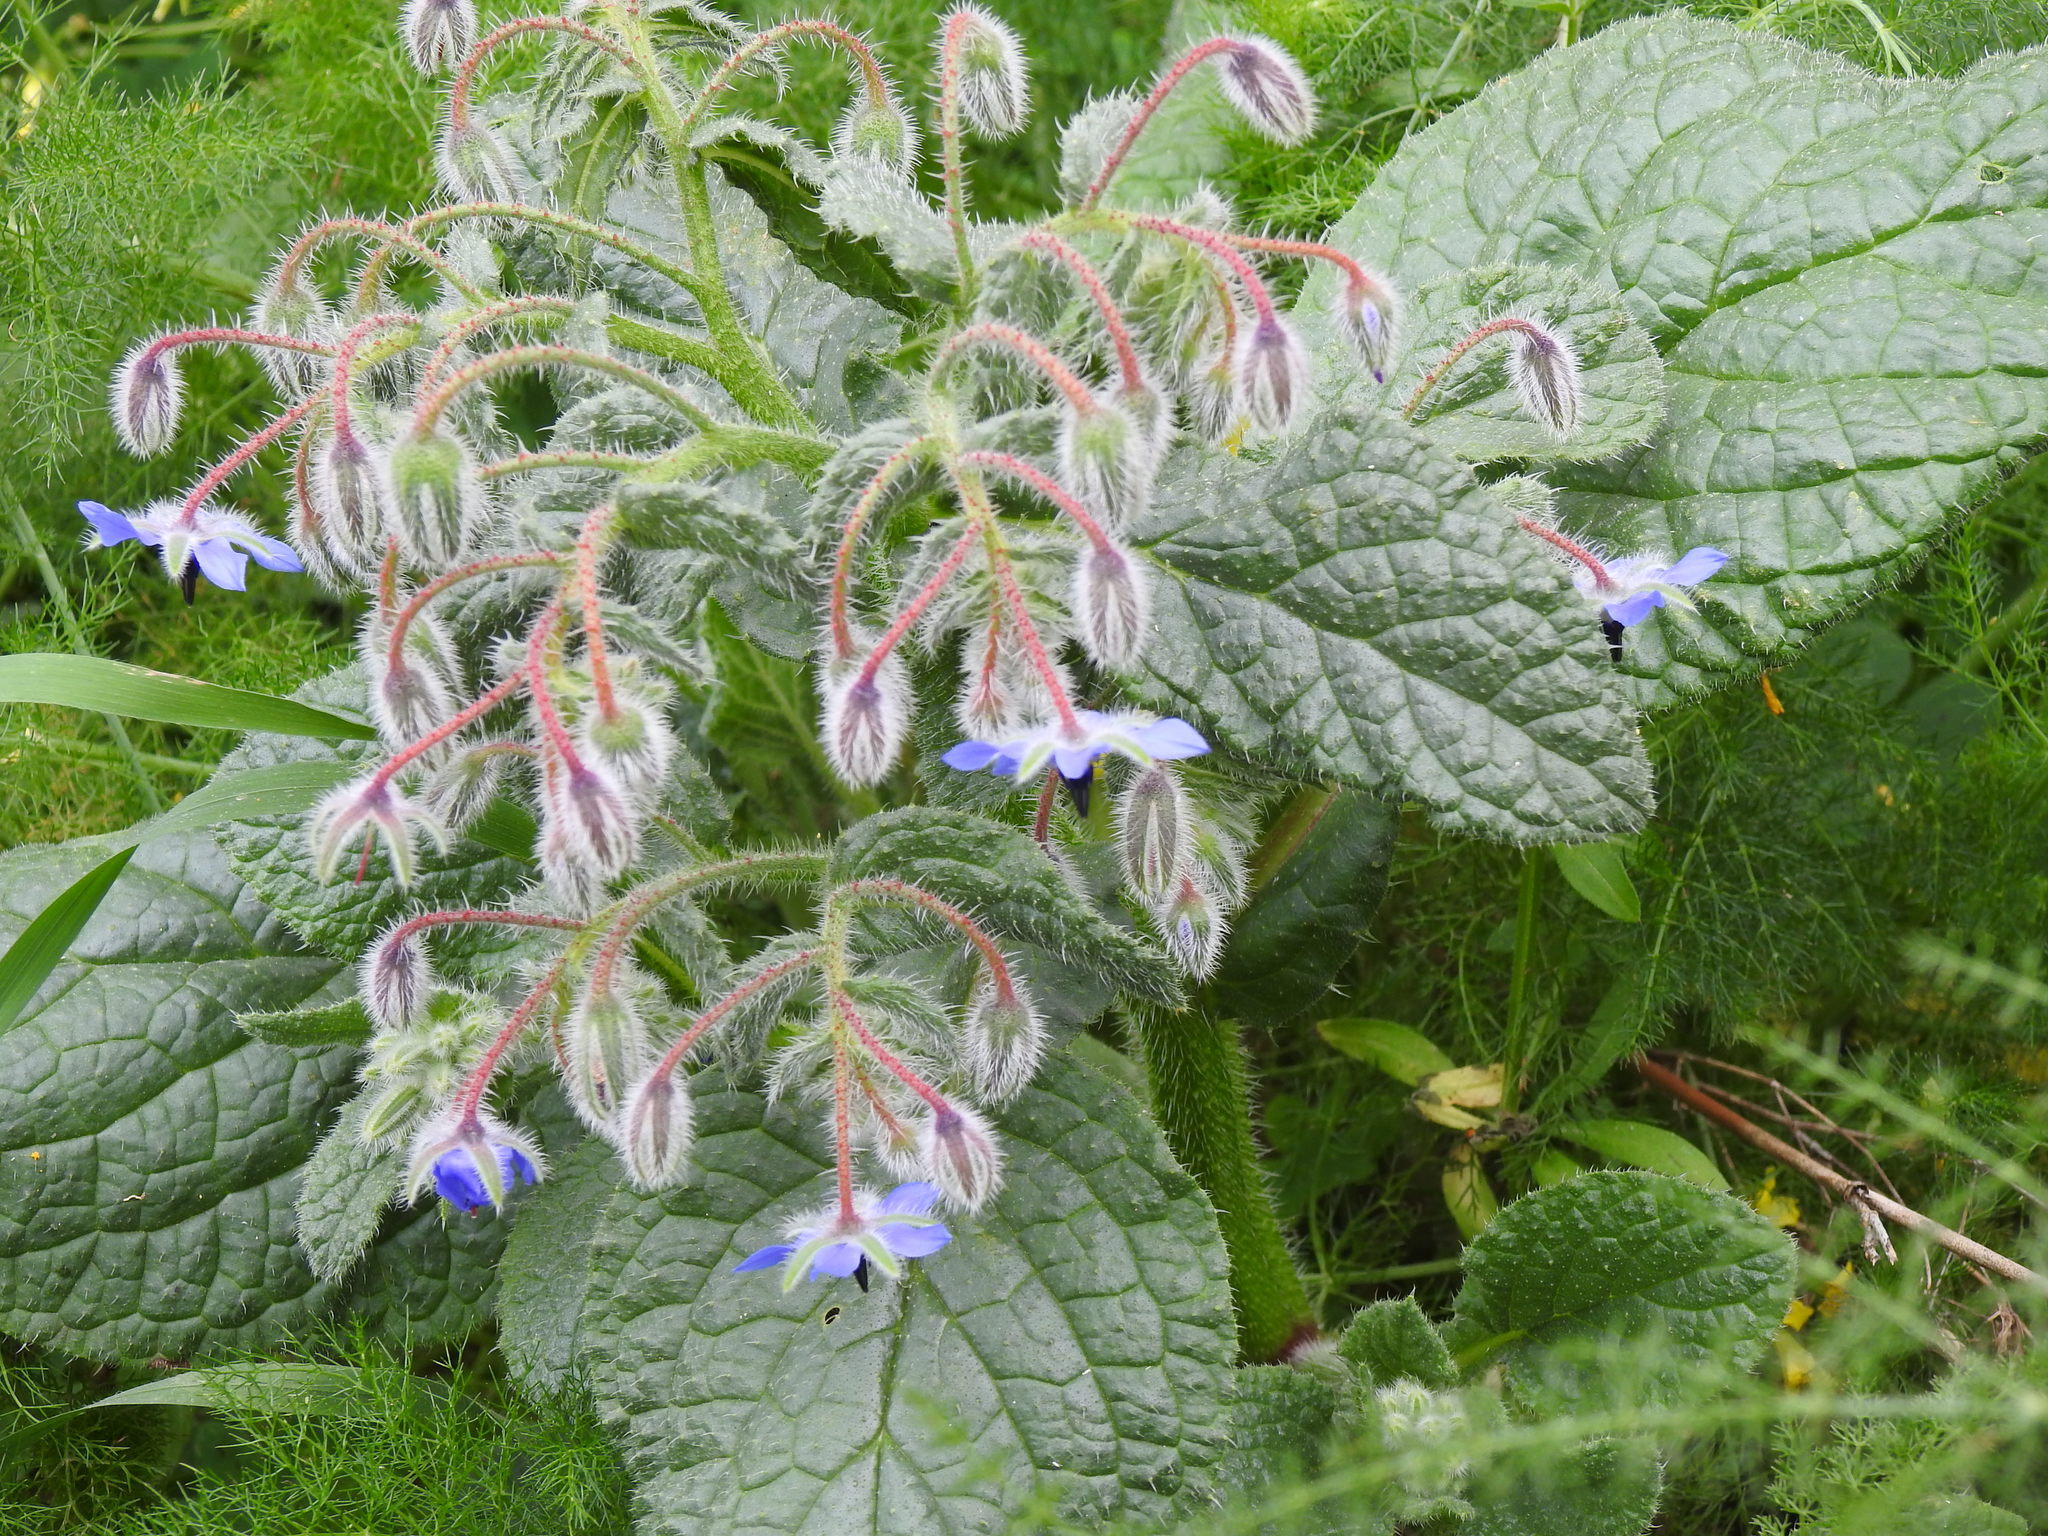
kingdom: Plantae
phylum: Tracheophyta
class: Magnoliopsida
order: Boraginales
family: Boraginaceae
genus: Borago
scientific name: Borago officinalis
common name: Borage
